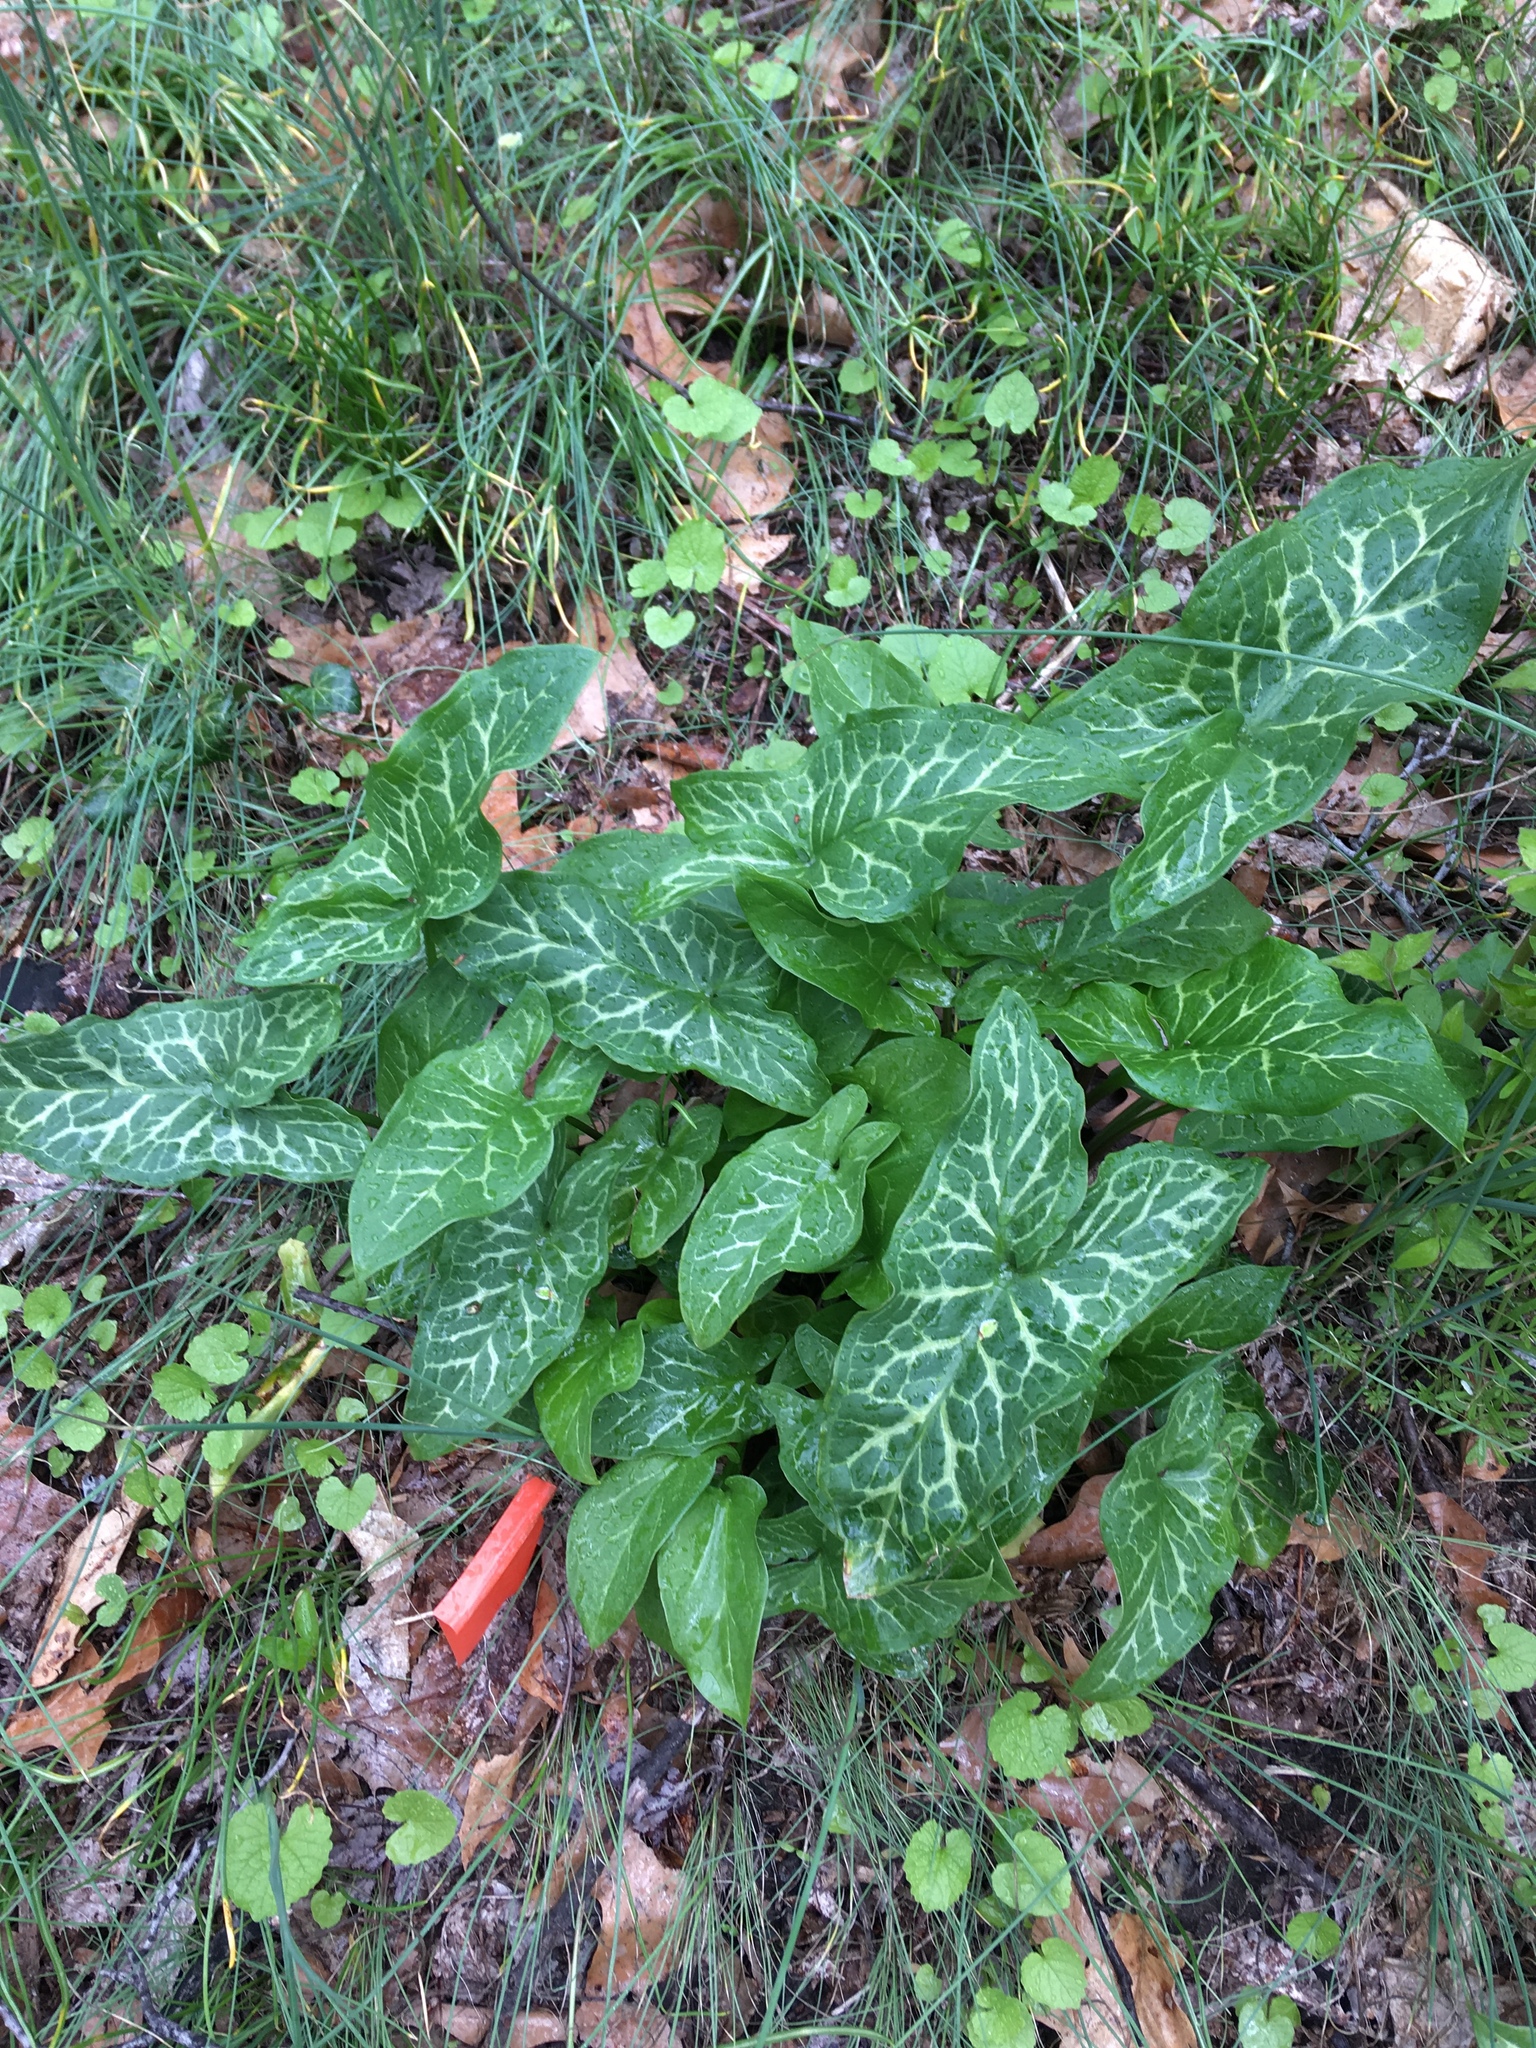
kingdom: Plantae
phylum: Tracheophyta
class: Liliopsida
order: Alismatales
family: Araceae
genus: Arum
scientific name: Arum italicum
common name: Italian lords-and-ladies
